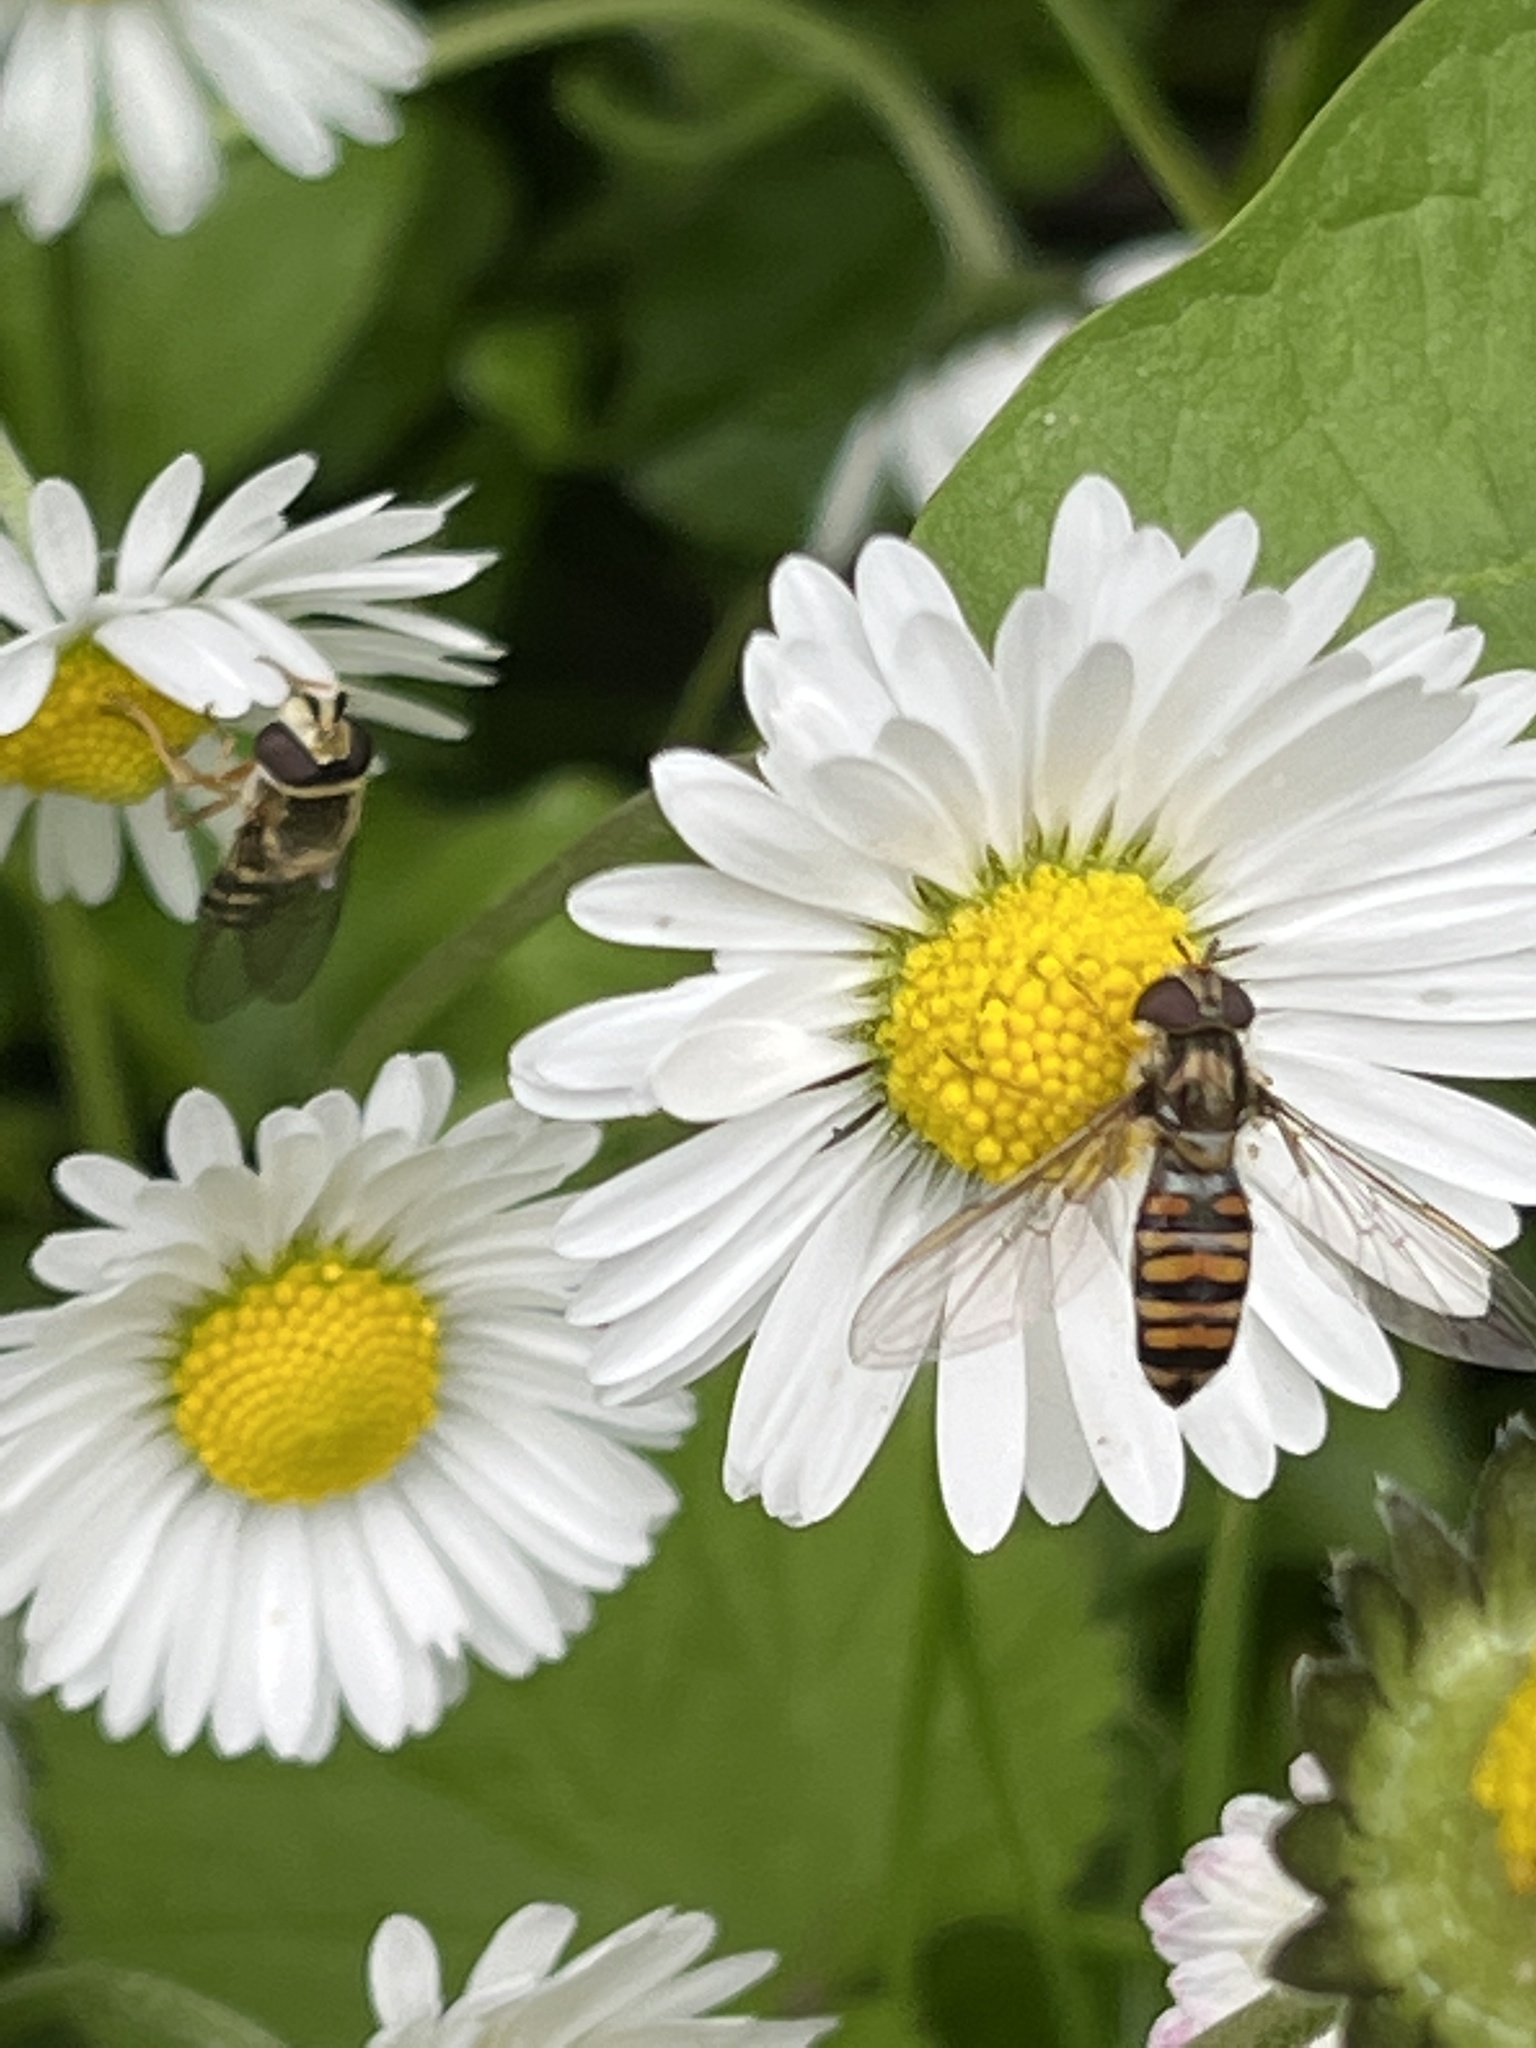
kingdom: Animalia
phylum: Arthropoda
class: Insecta
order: Diptera
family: Syrphidae
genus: Episyrphus
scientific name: Episyrphus balteatus
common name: Marmalade hoverfly
